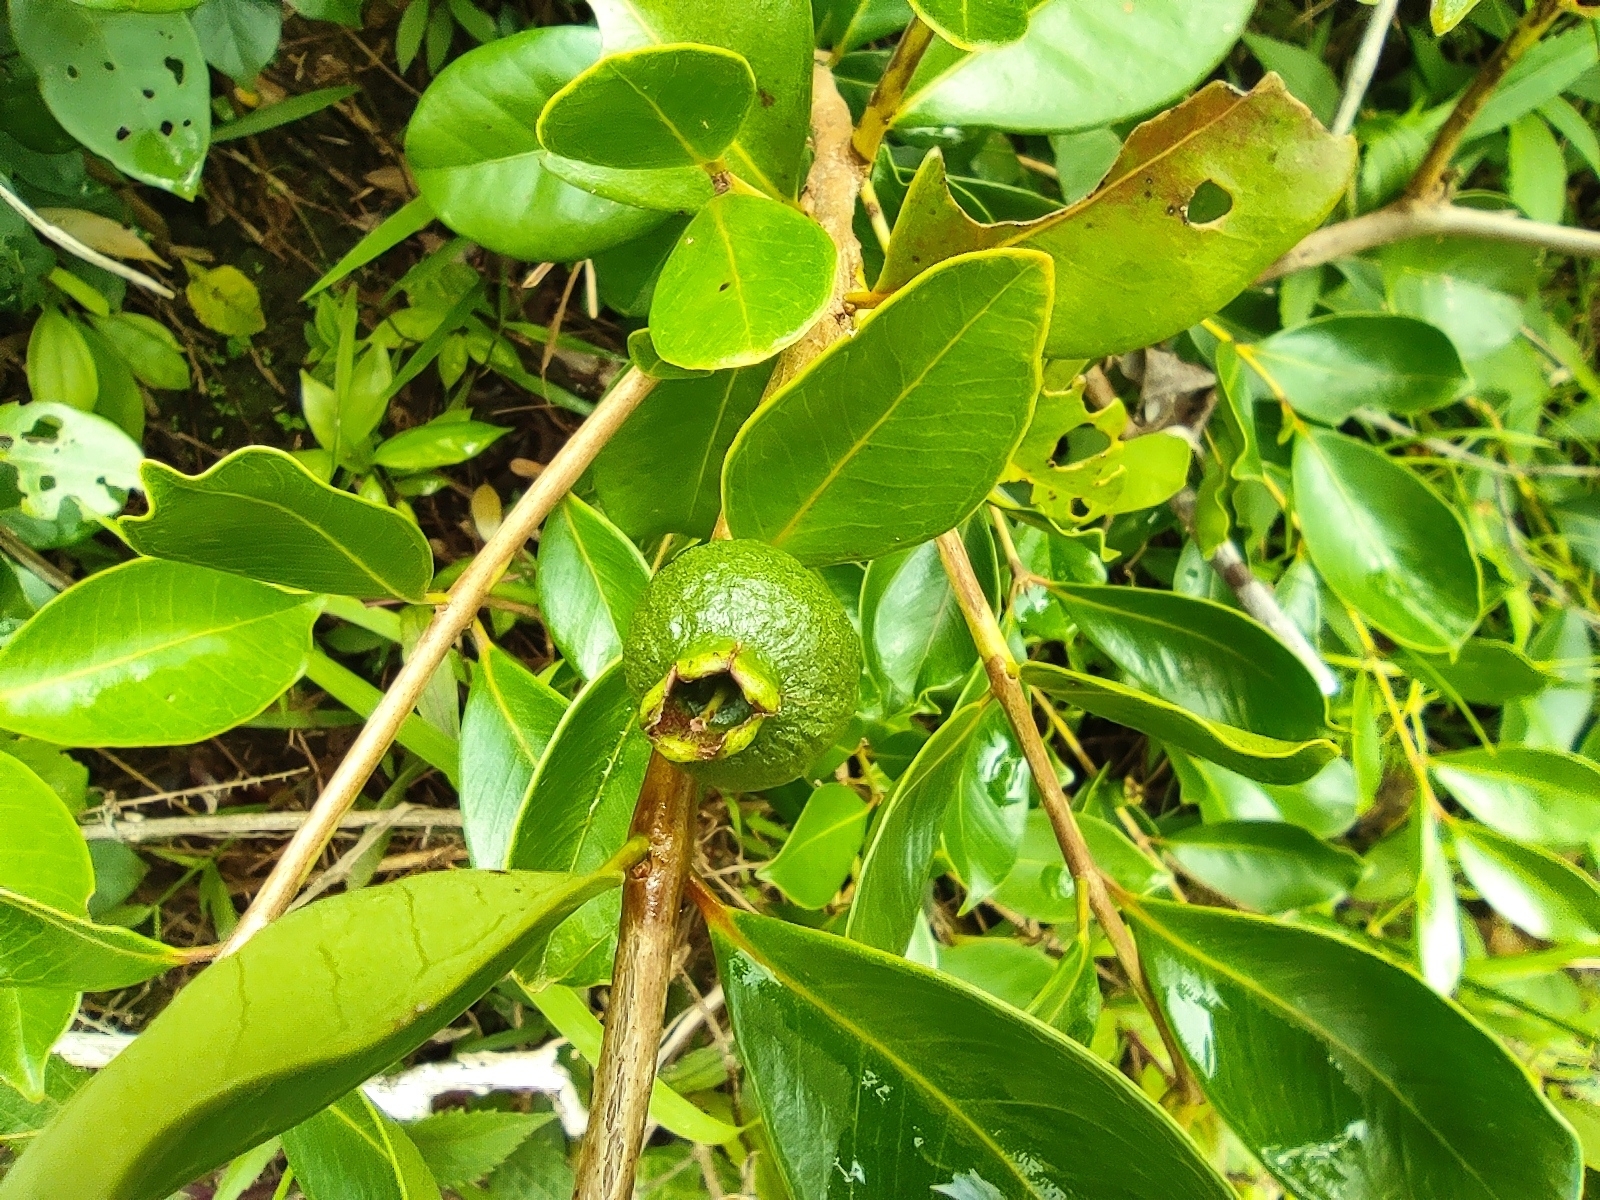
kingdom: Plantae
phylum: Tracheophyta
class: Magnoliopsida
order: Myrtales
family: Myrtaceae
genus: Psidium
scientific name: Psidium cattleianum
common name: Strawberry guava
